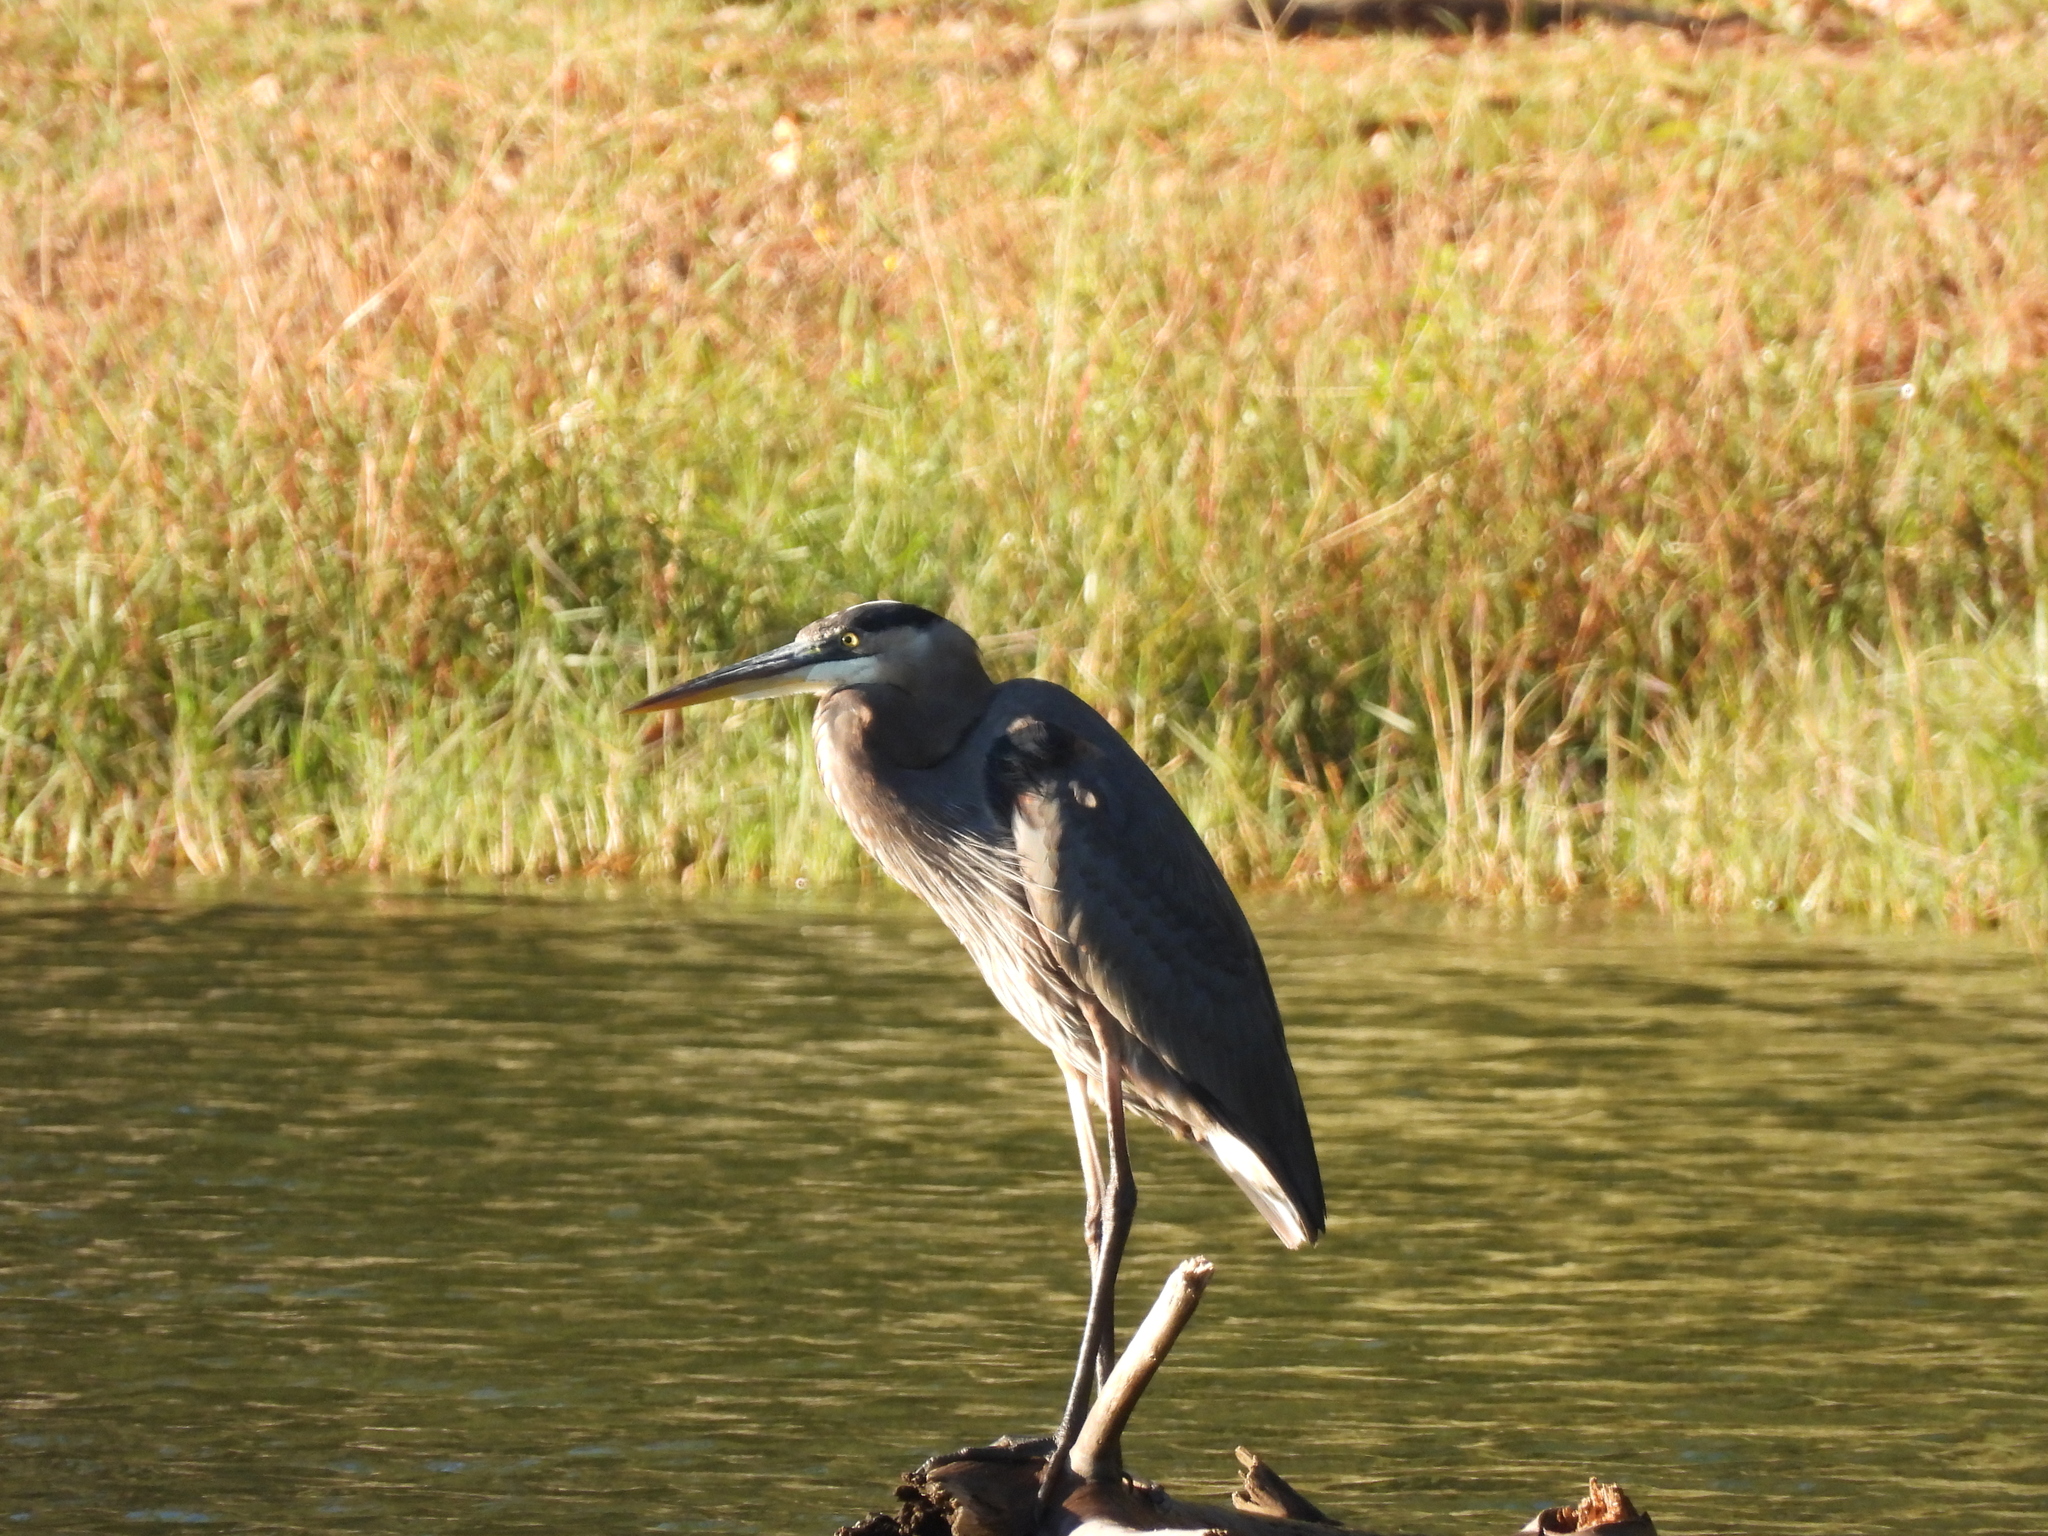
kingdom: Animalia
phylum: Chordata
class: Aves
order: Pelecaniformes
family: Ardeidae
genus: Ardea
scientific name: Ardea herodias
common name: Great blue heron
